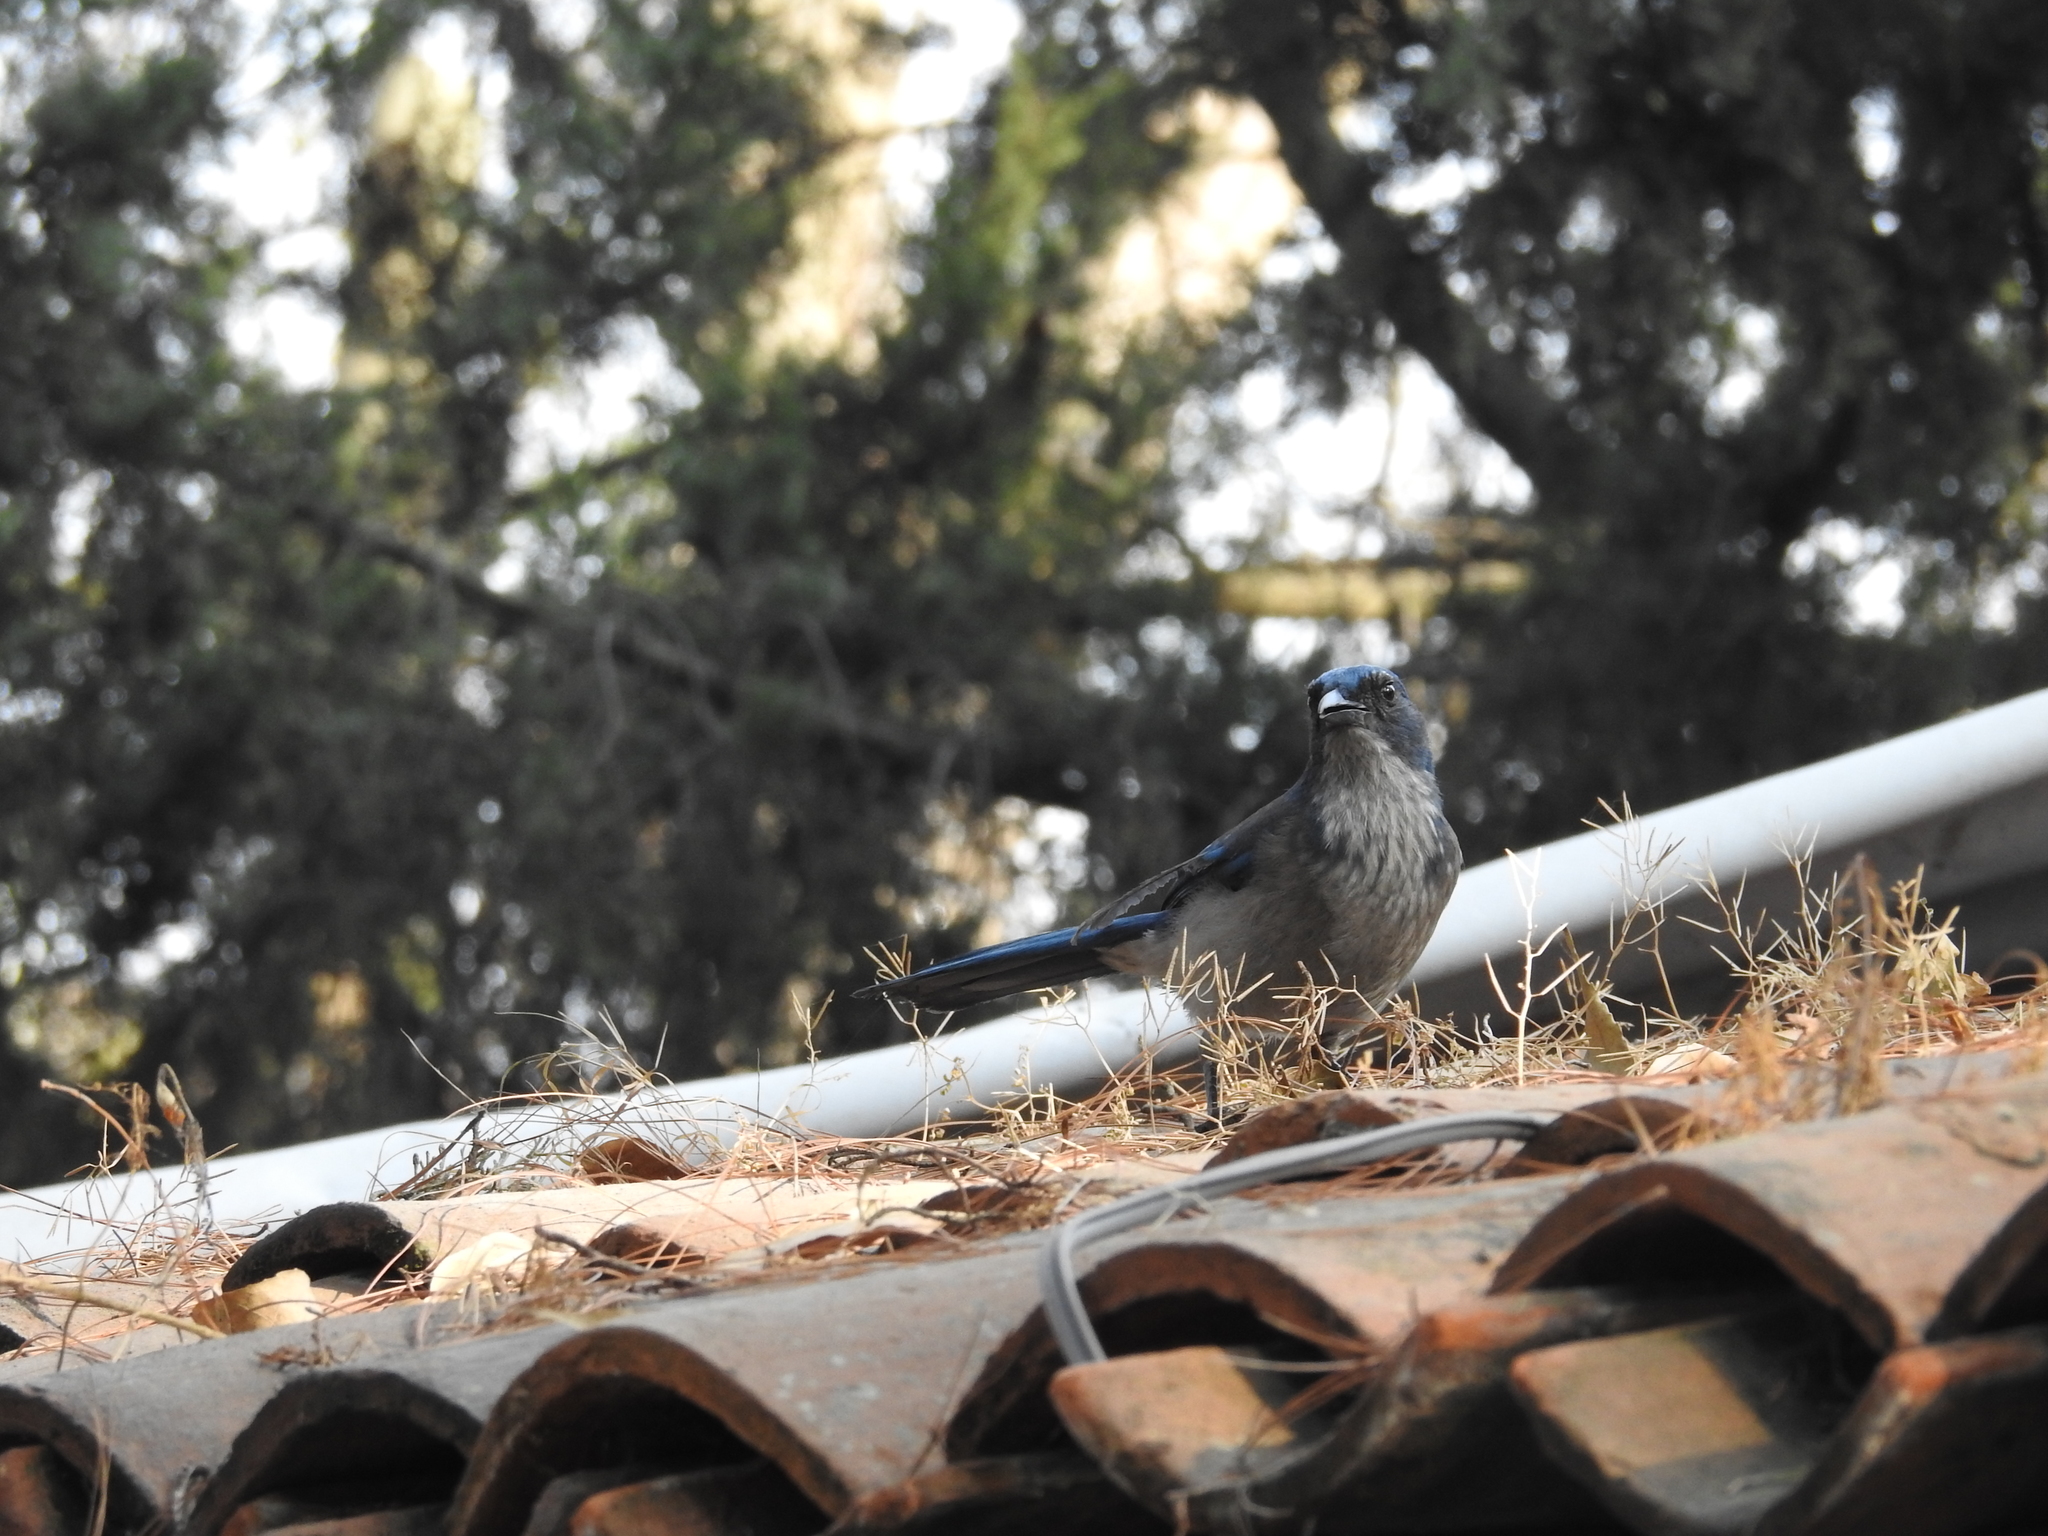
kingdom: Animalia
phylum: Chordata
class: Aves
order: Passeriformes
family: Corvidae
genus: Aphelocoma
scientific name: Aphelocoma woodhouseii
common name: Woodhouse's scrub-jay
